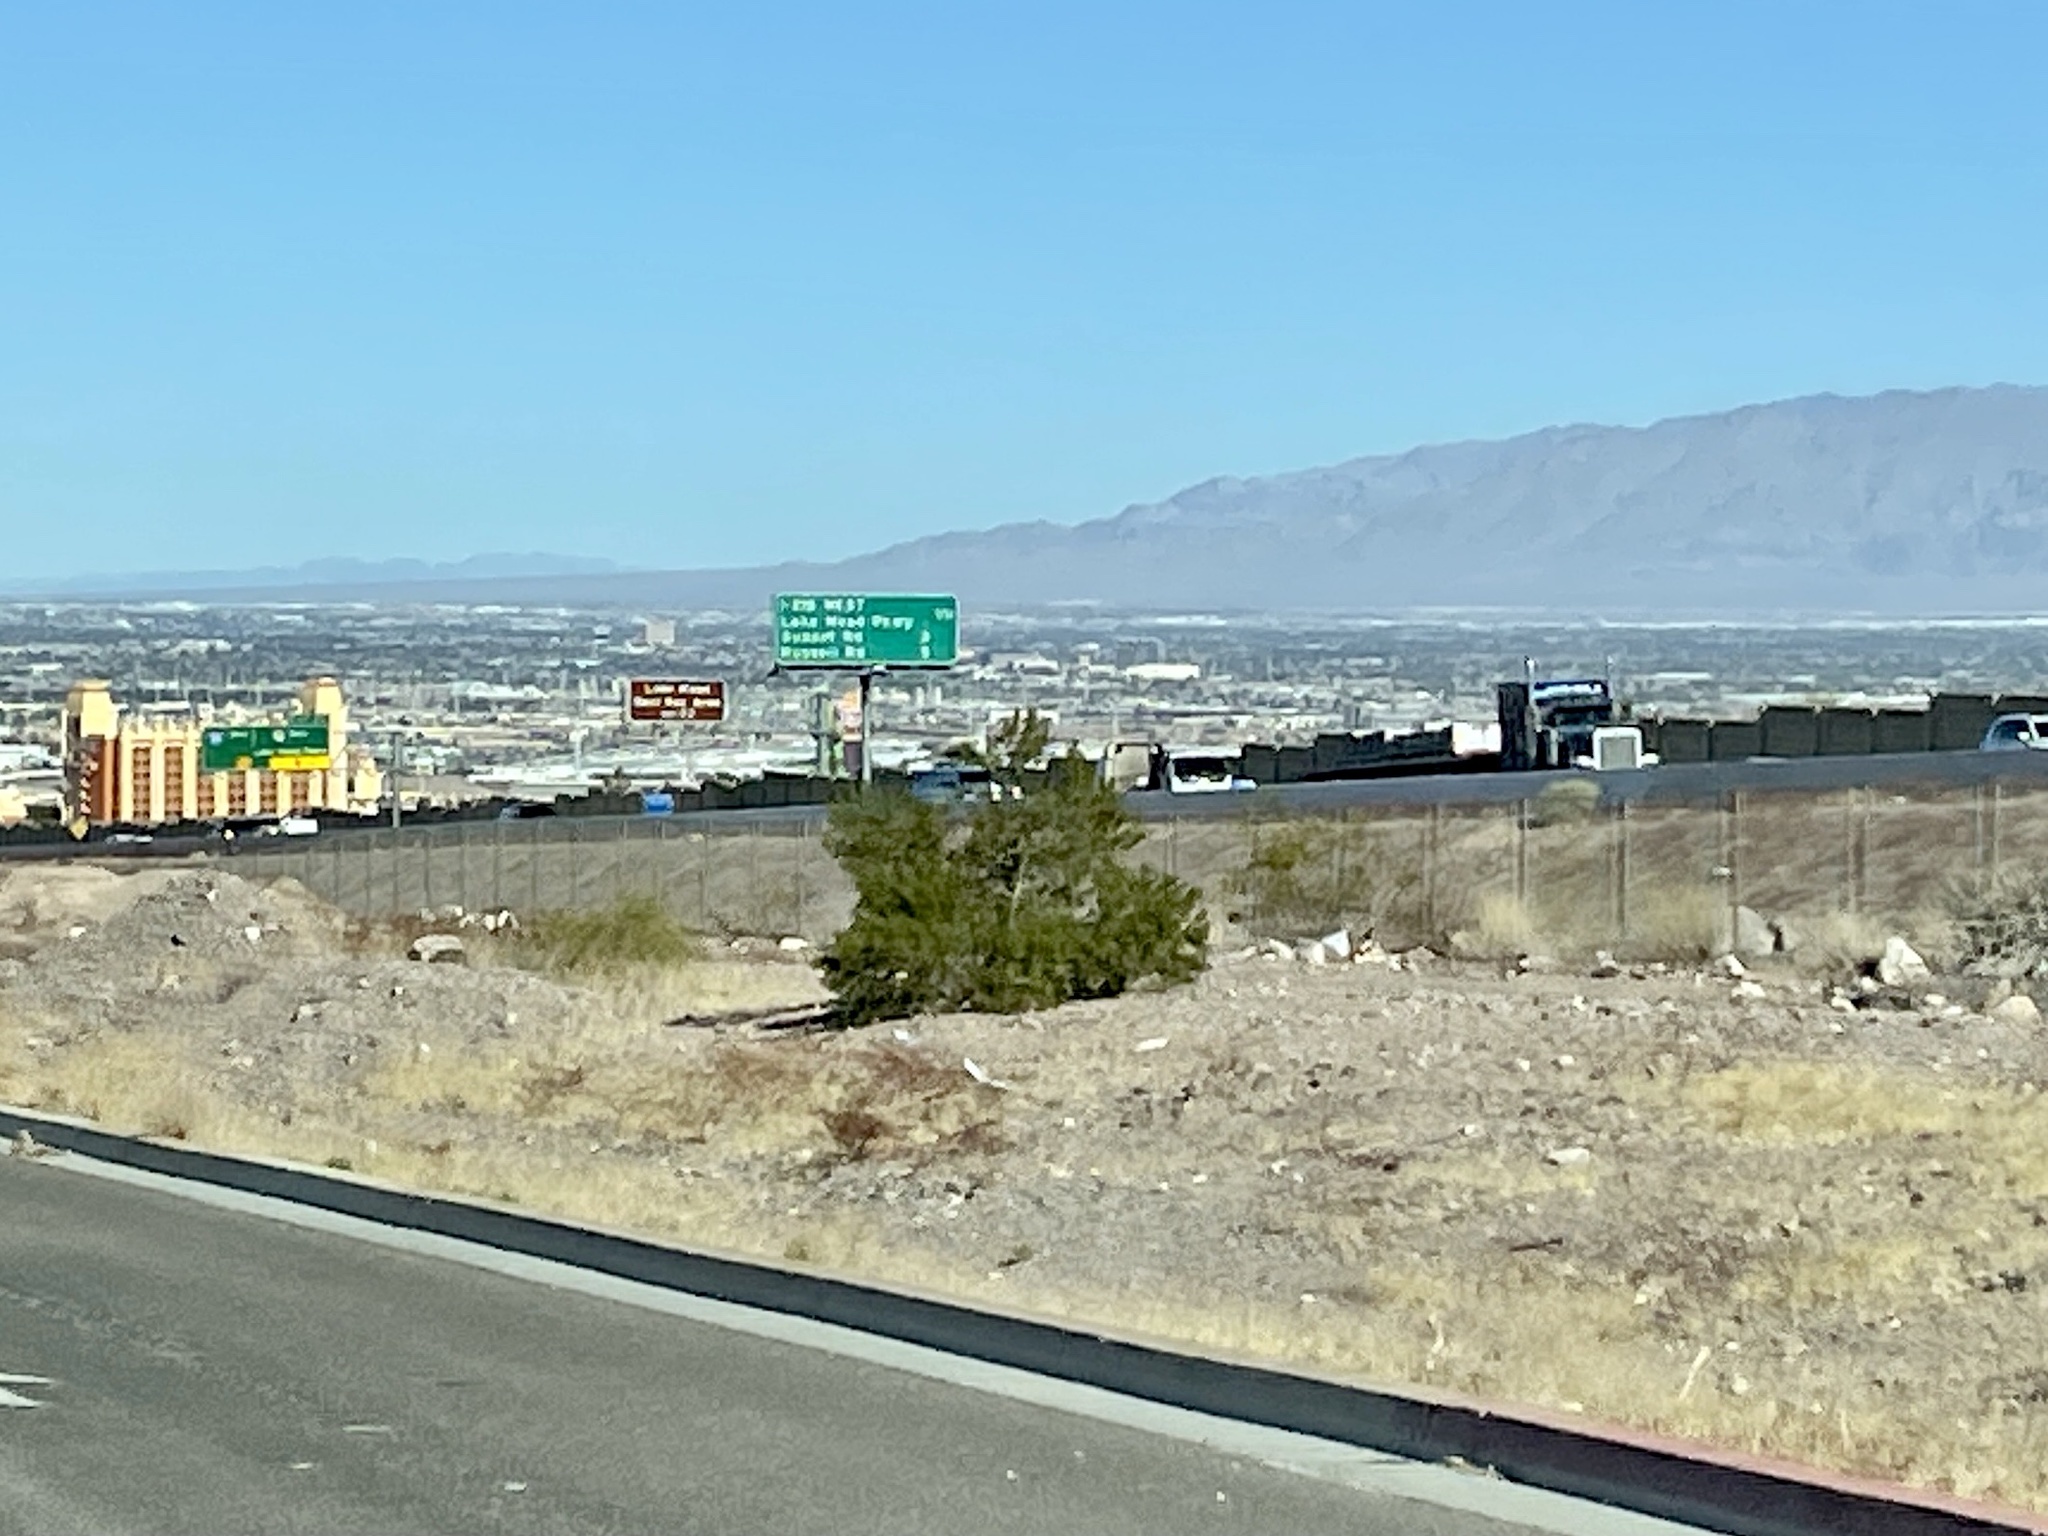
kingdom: Plantae
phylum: Tracheophyta
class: Magnoliopsida
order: Zygophyllales
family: Zygophyllaceae
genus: Larrea
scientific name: Larrea tridentata
